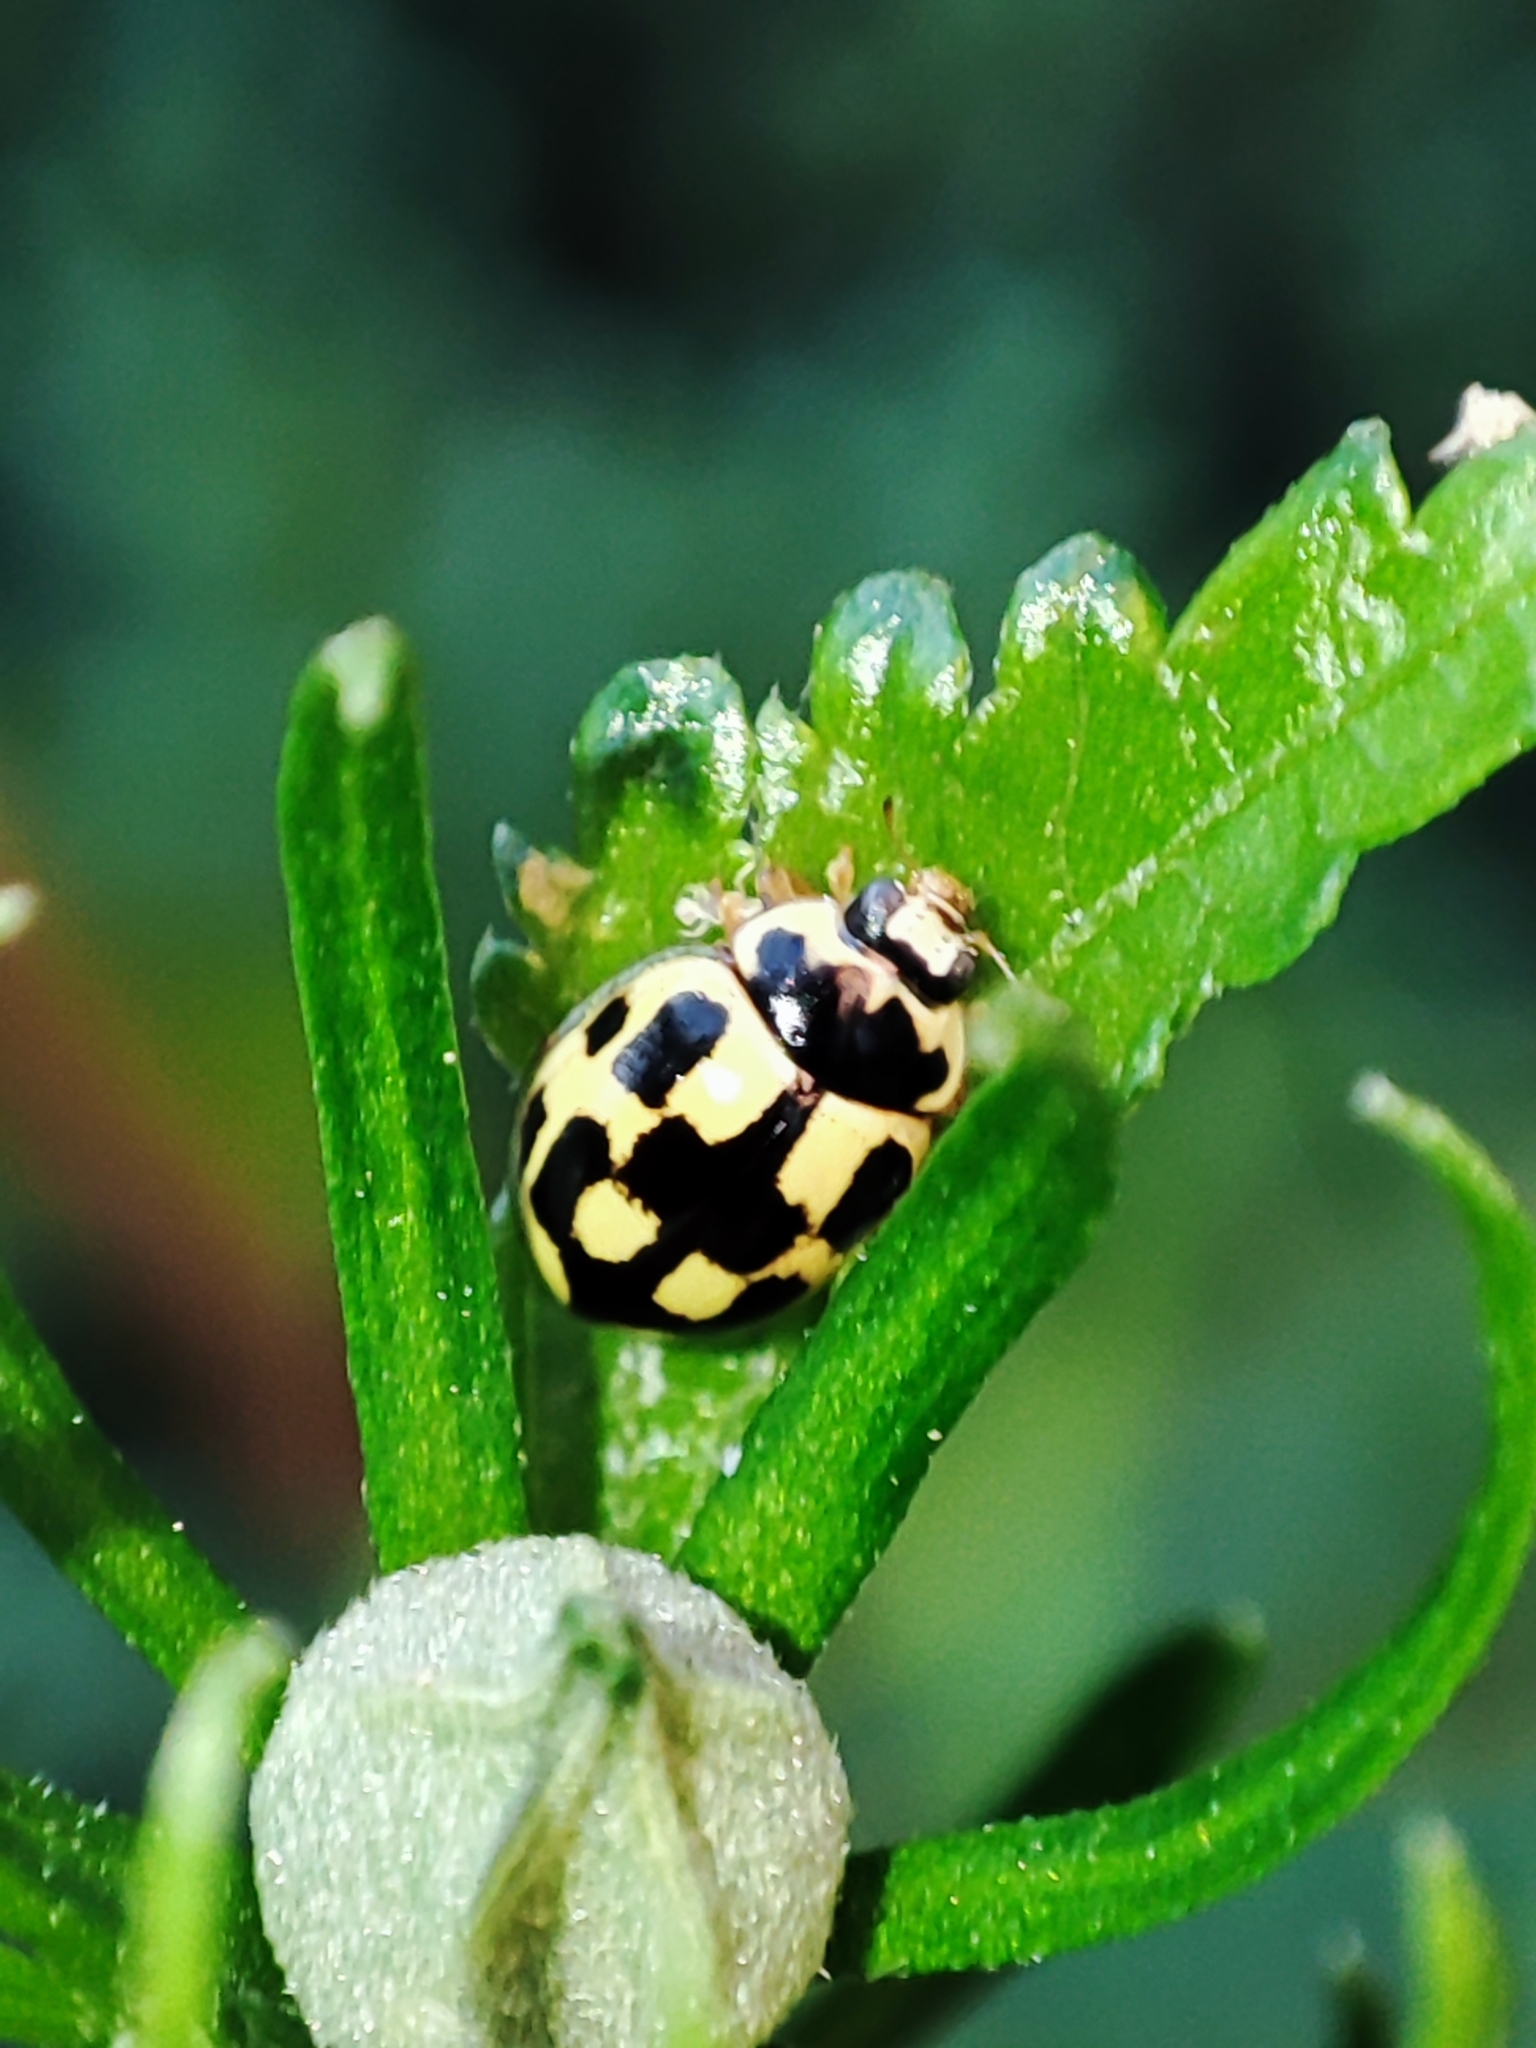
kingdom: Animalia
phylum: Arthropoda
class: Insecta
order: Coleoptera
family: Coccinellidae
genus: Propylaea
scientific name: Propylaea quatuordecimpunctata
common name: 14-spotted ladybird beetle
